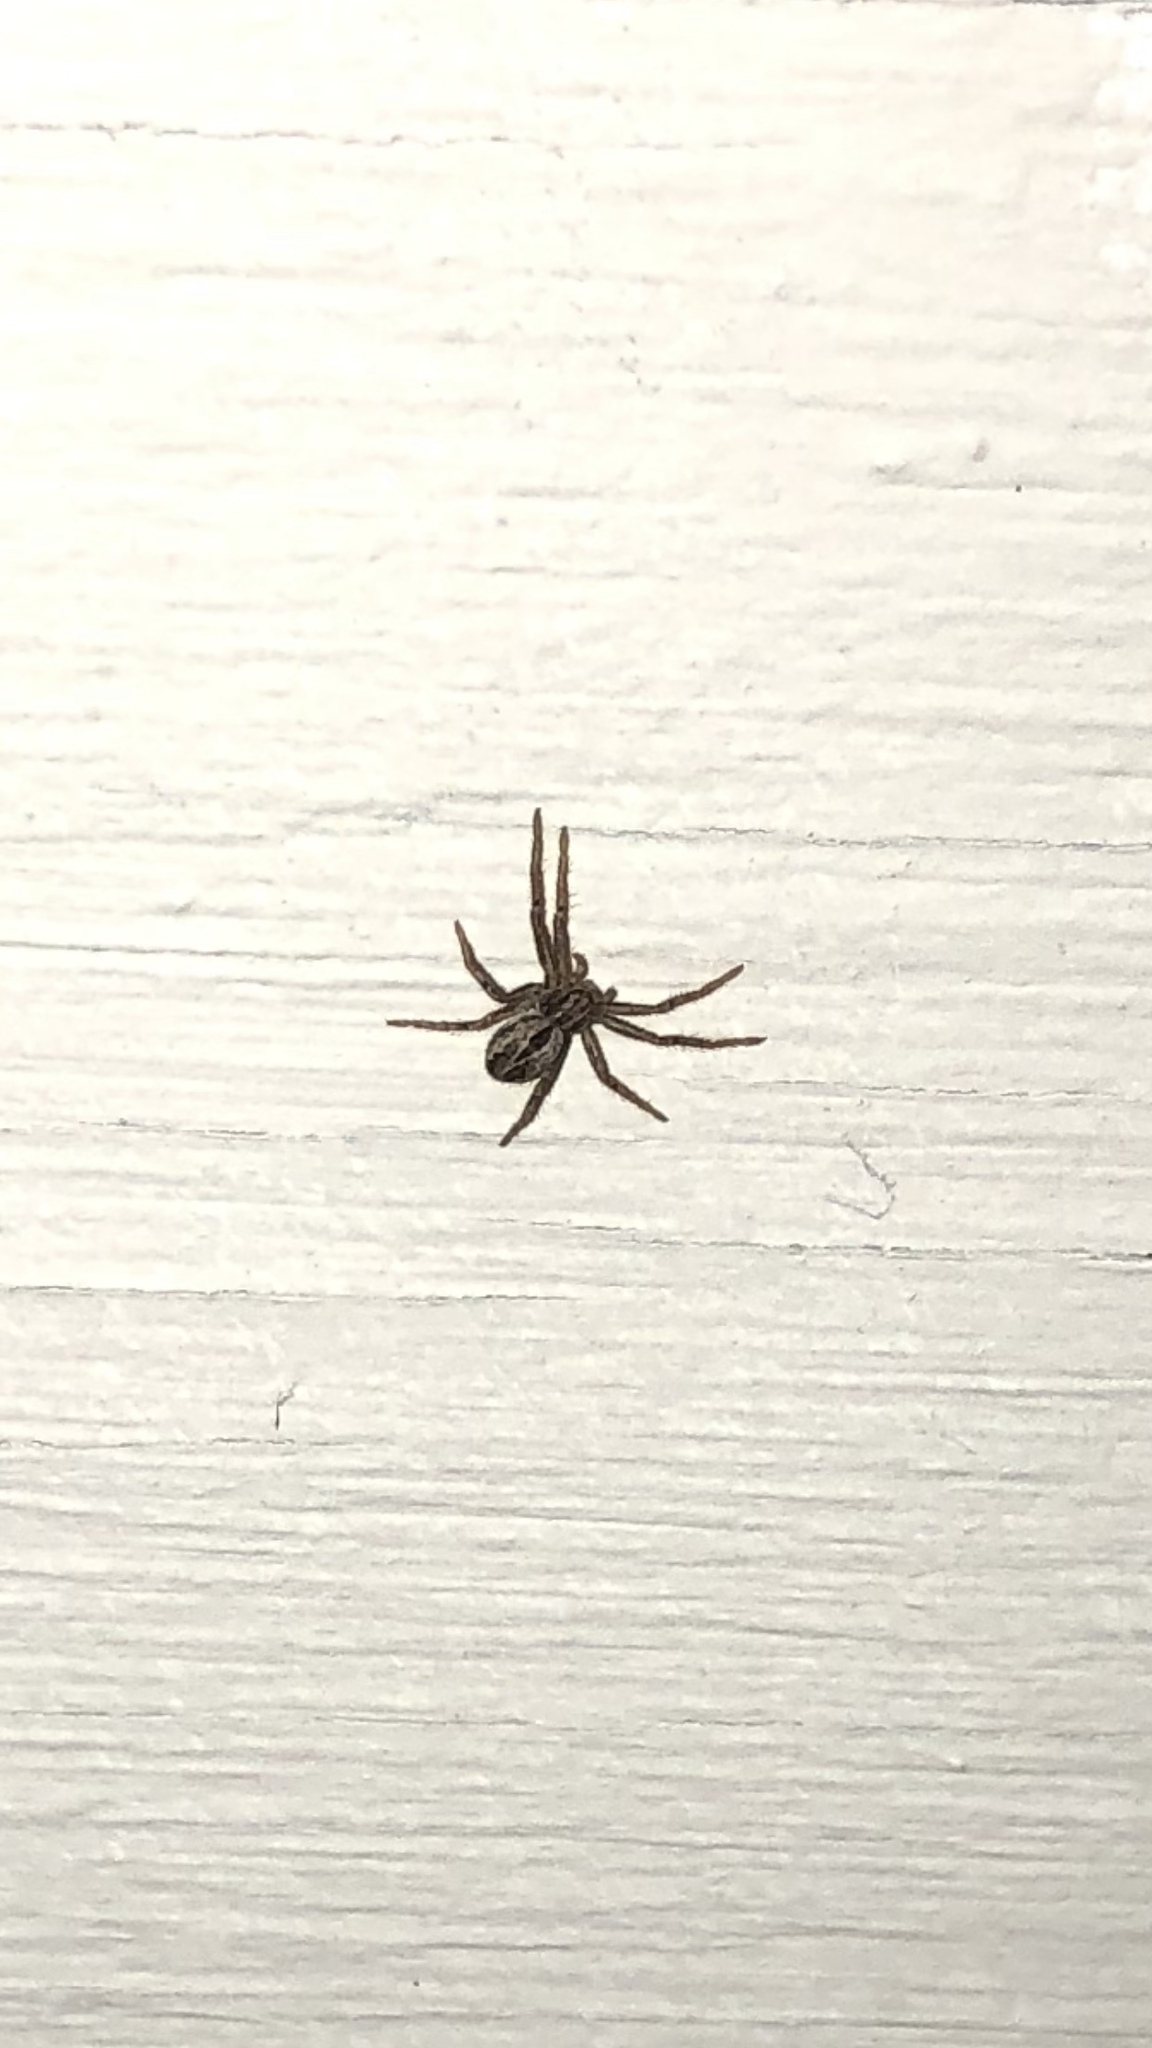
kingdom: Animalia
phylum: Arthropoda
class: Arachnida
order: Araneae
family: Philodromidae
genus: Thanatus
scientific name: Thanatus
